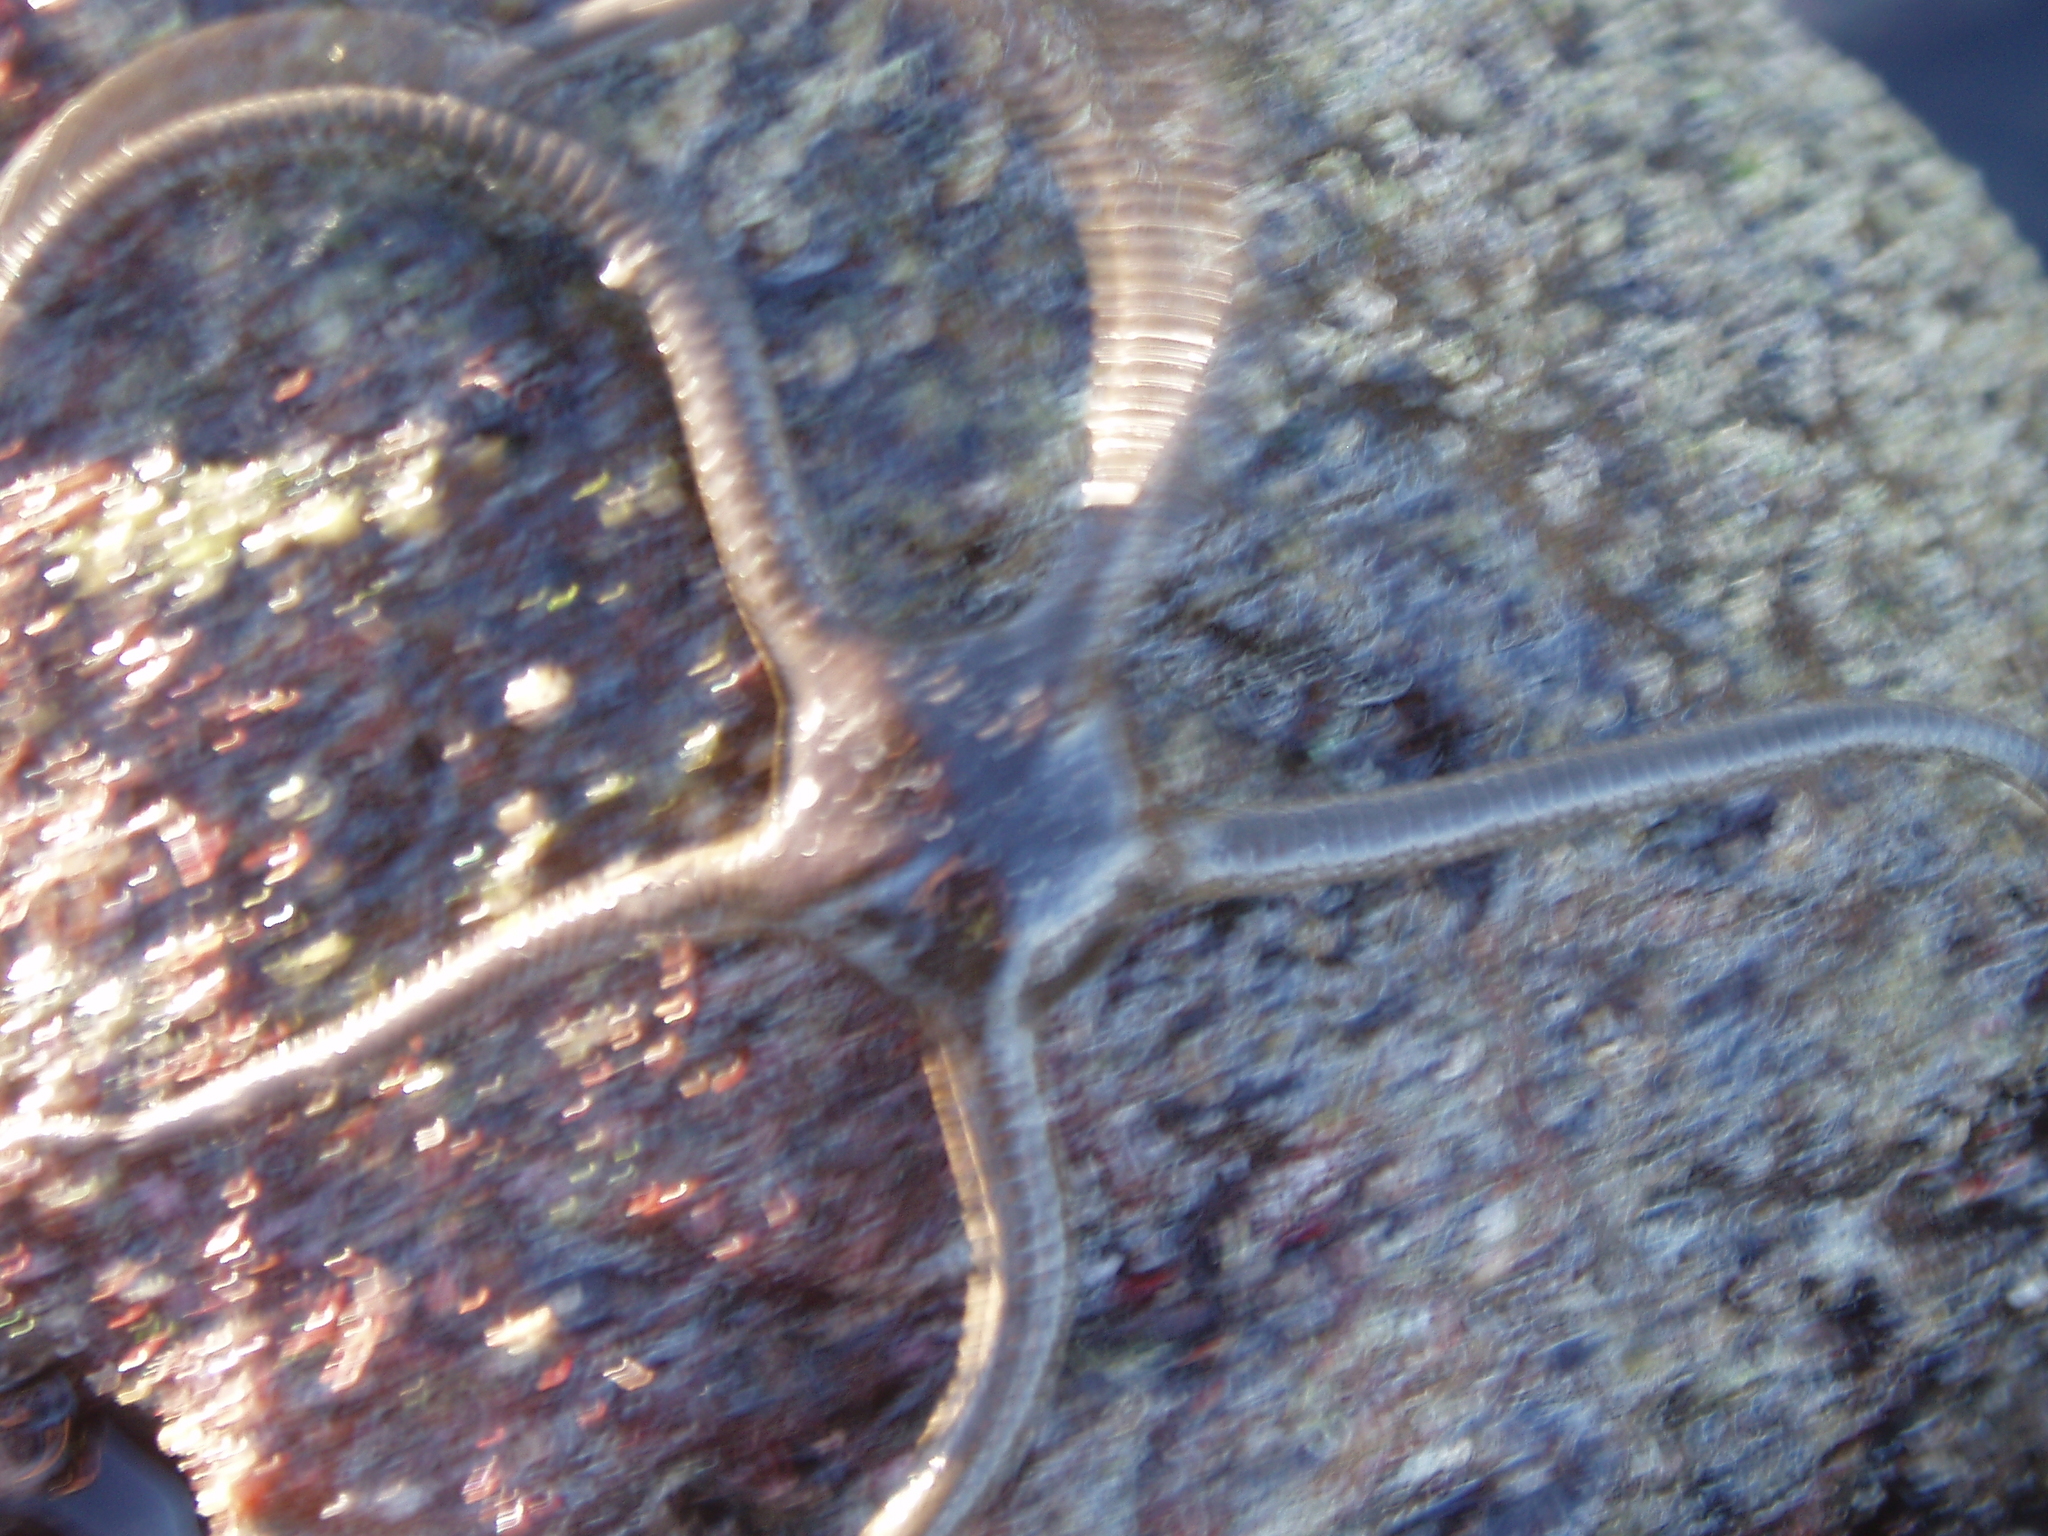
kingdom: Animalia
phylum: Echinodermata
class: Ophiuroidea
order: Ophiacanthida
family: Ophiodermatidae
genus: Ophioderma
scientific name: Ophioderma panamense
